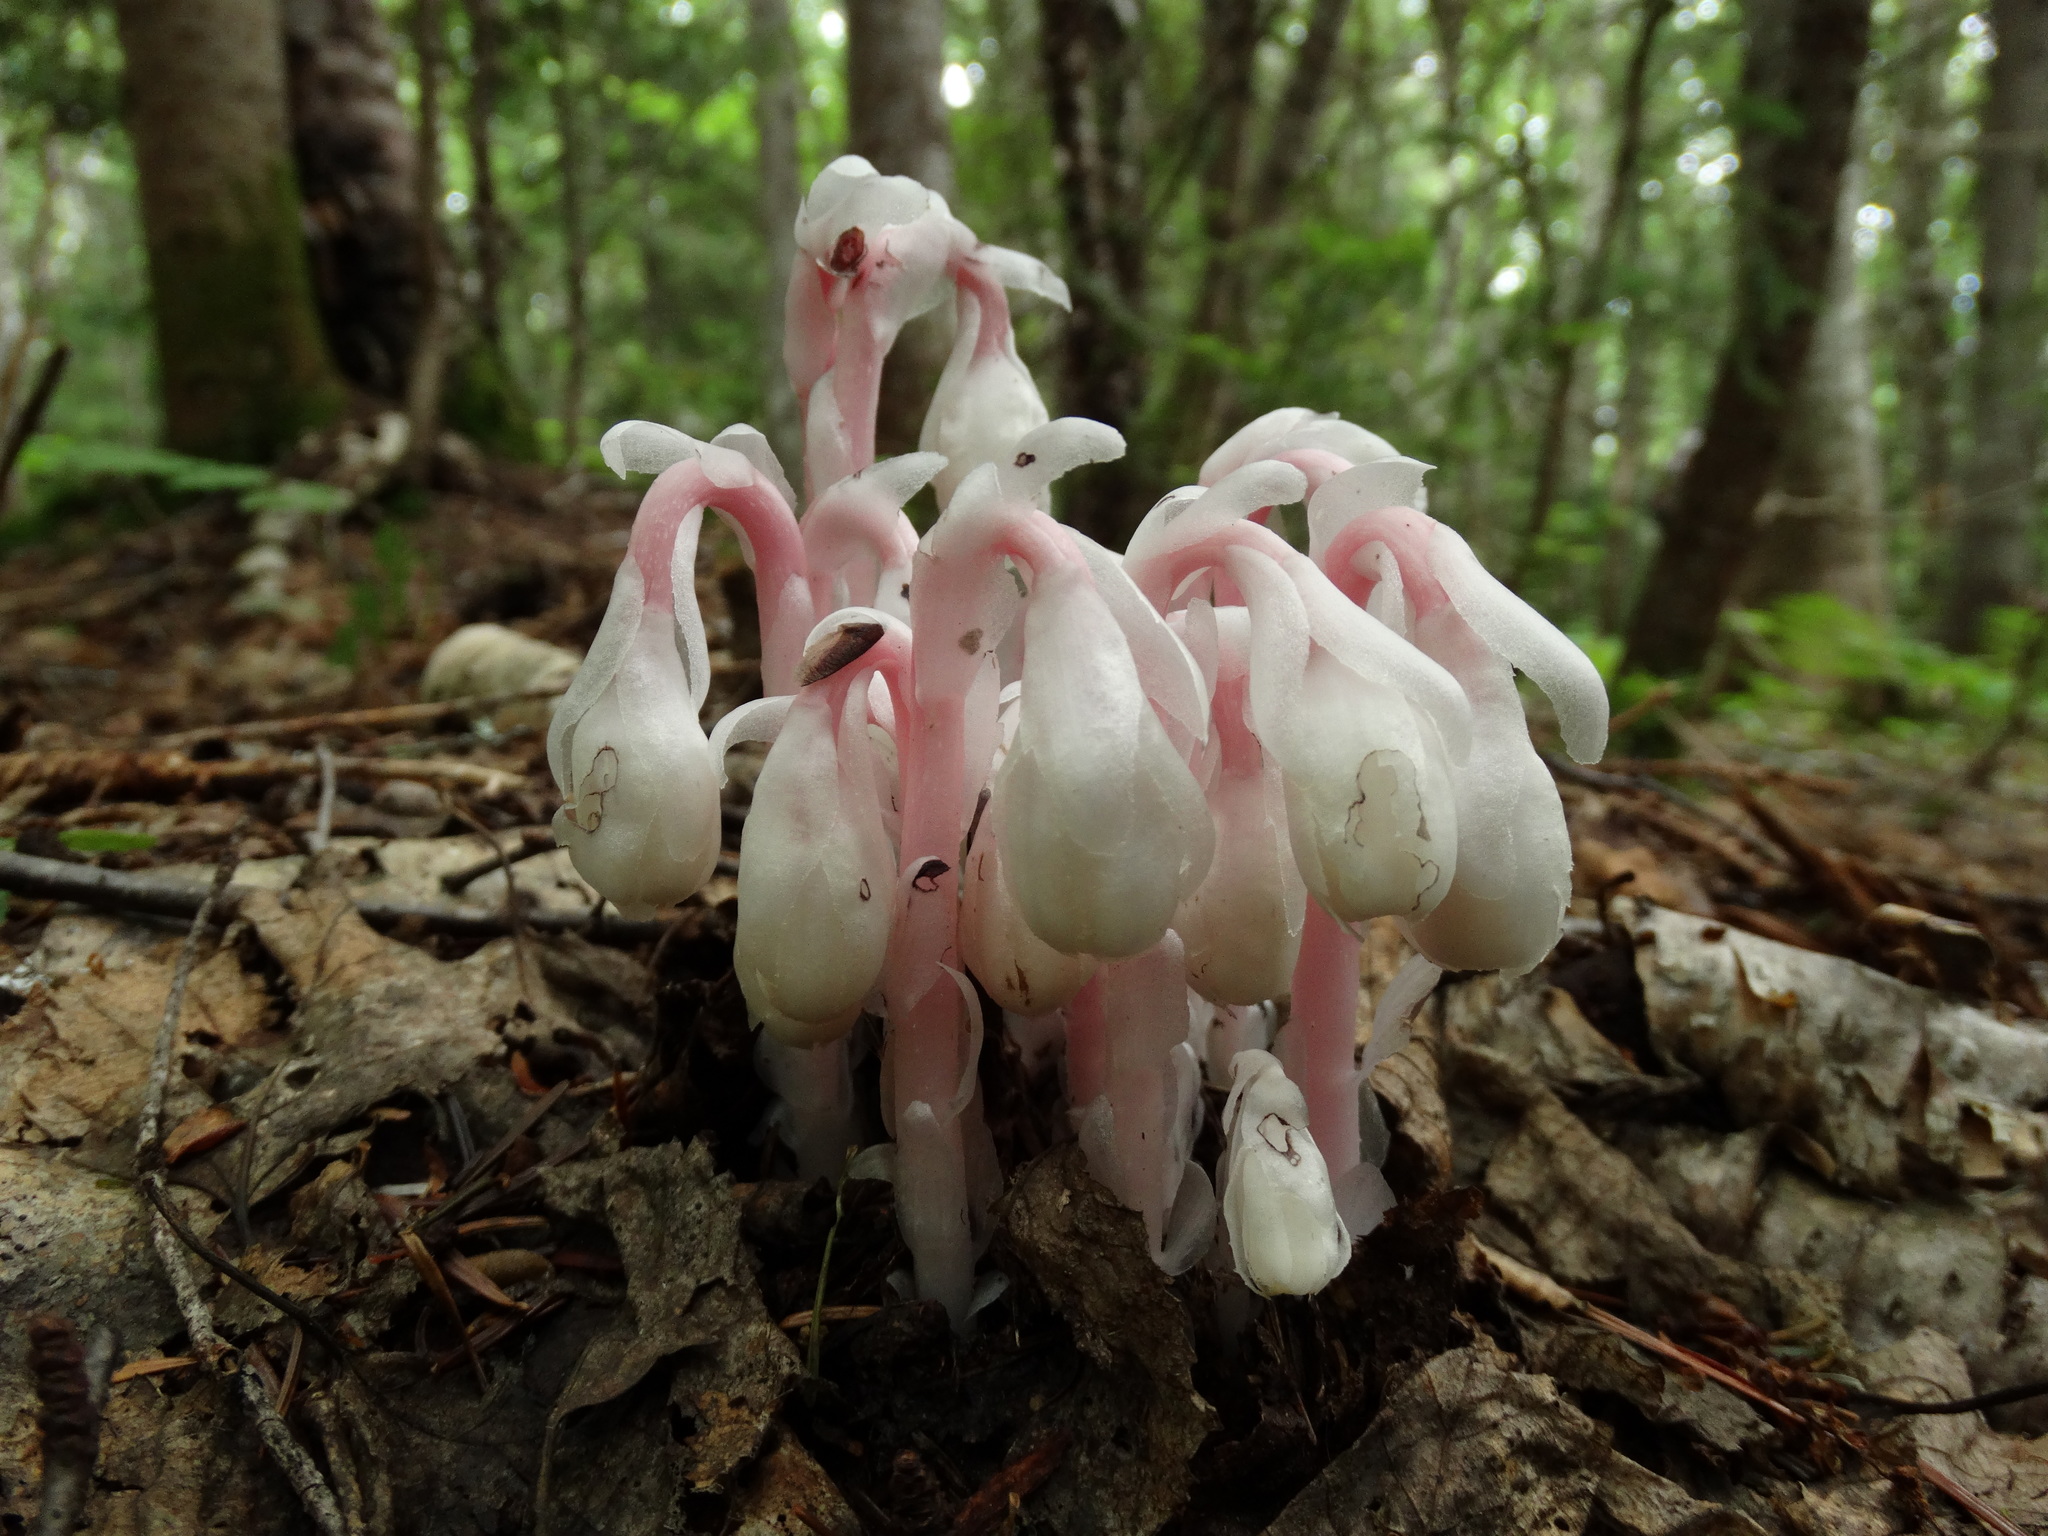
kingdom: Plantae
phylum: Tracheophyta
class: Magnoliopsida
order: Ericales
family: Ericaceae
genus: Monotropa
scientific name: Monotropa uniflora
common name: Convulsion root
